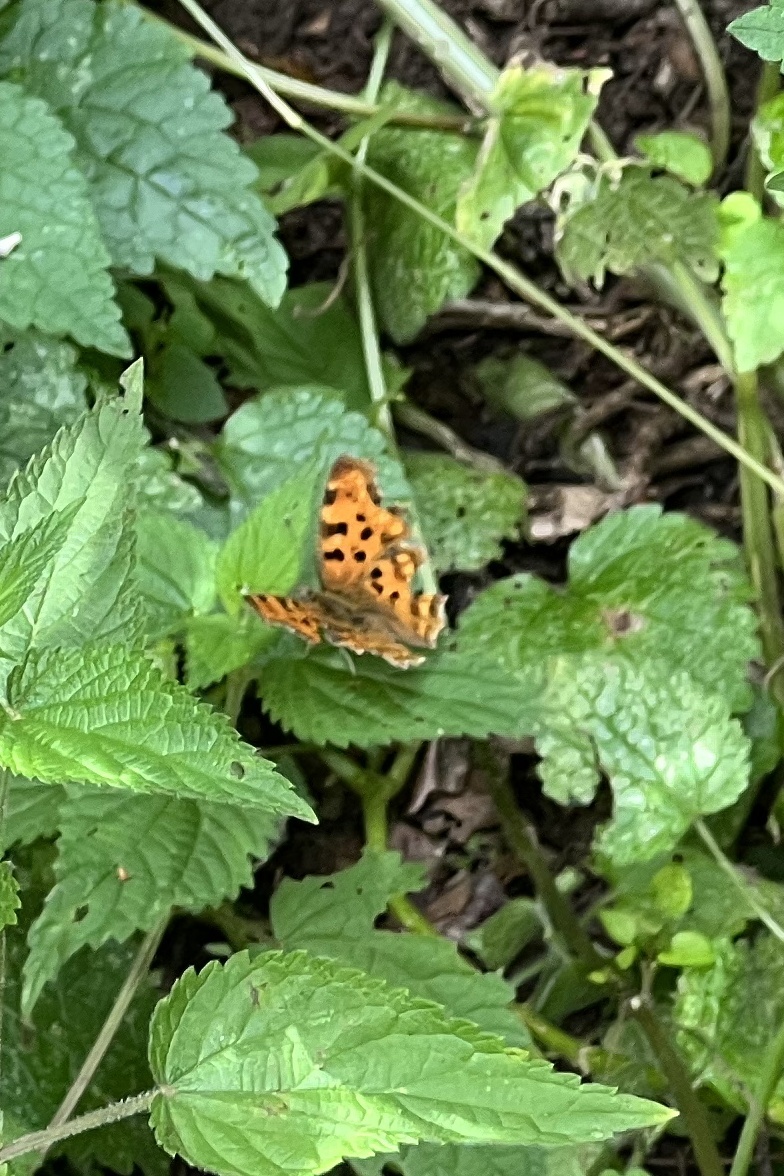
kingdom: Animalia
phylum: Arthropoda
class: Insecta
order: Lepidoptera
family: Nymphalidae
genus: Polygonia
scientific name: Polygonia c-album
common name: Comma
